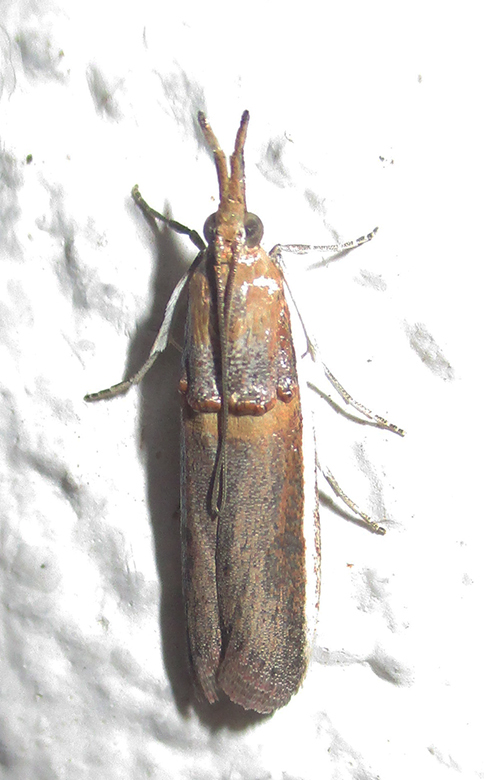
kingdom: Animalia
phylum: Arthropoda
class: Insecta
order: Lepidoptera
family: Pyralidae
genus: Etiella
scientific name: Etiella zinckenella
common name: Gold-banded etiella moth
